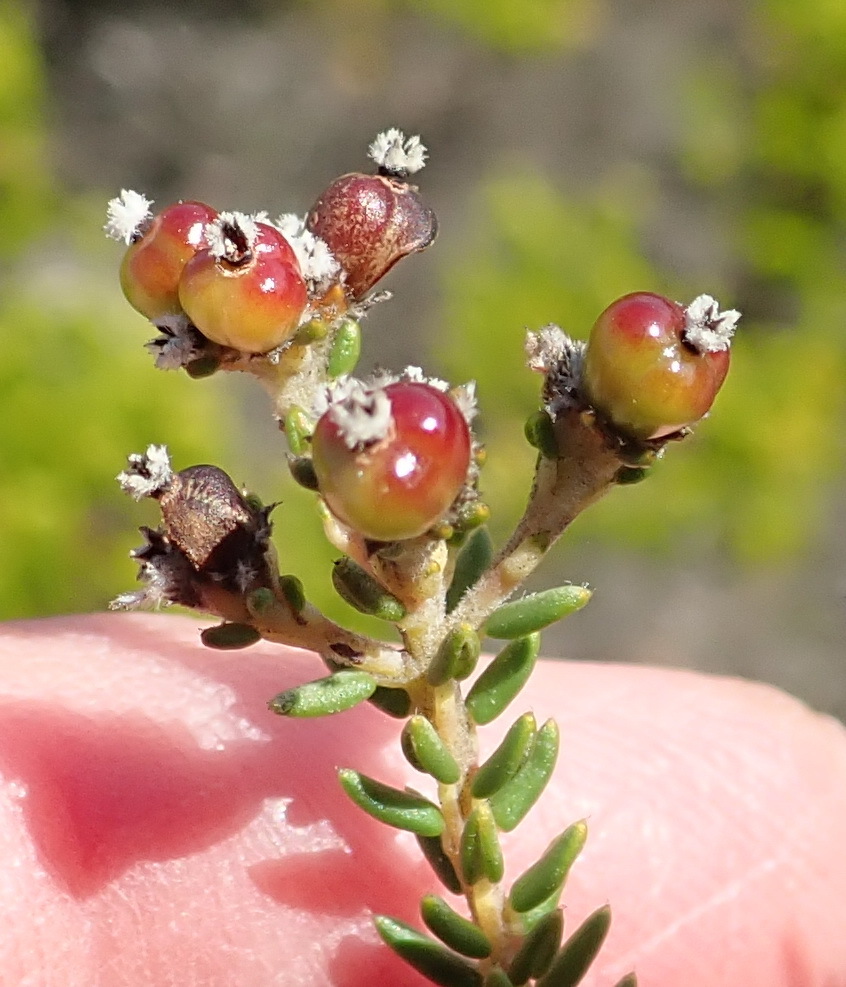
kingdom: Plantae
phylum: Tracheophyta
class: Magnoliopsida
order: Rosales
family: Rhamnaceae
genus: Phylica
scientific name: Phylica selaginoides
